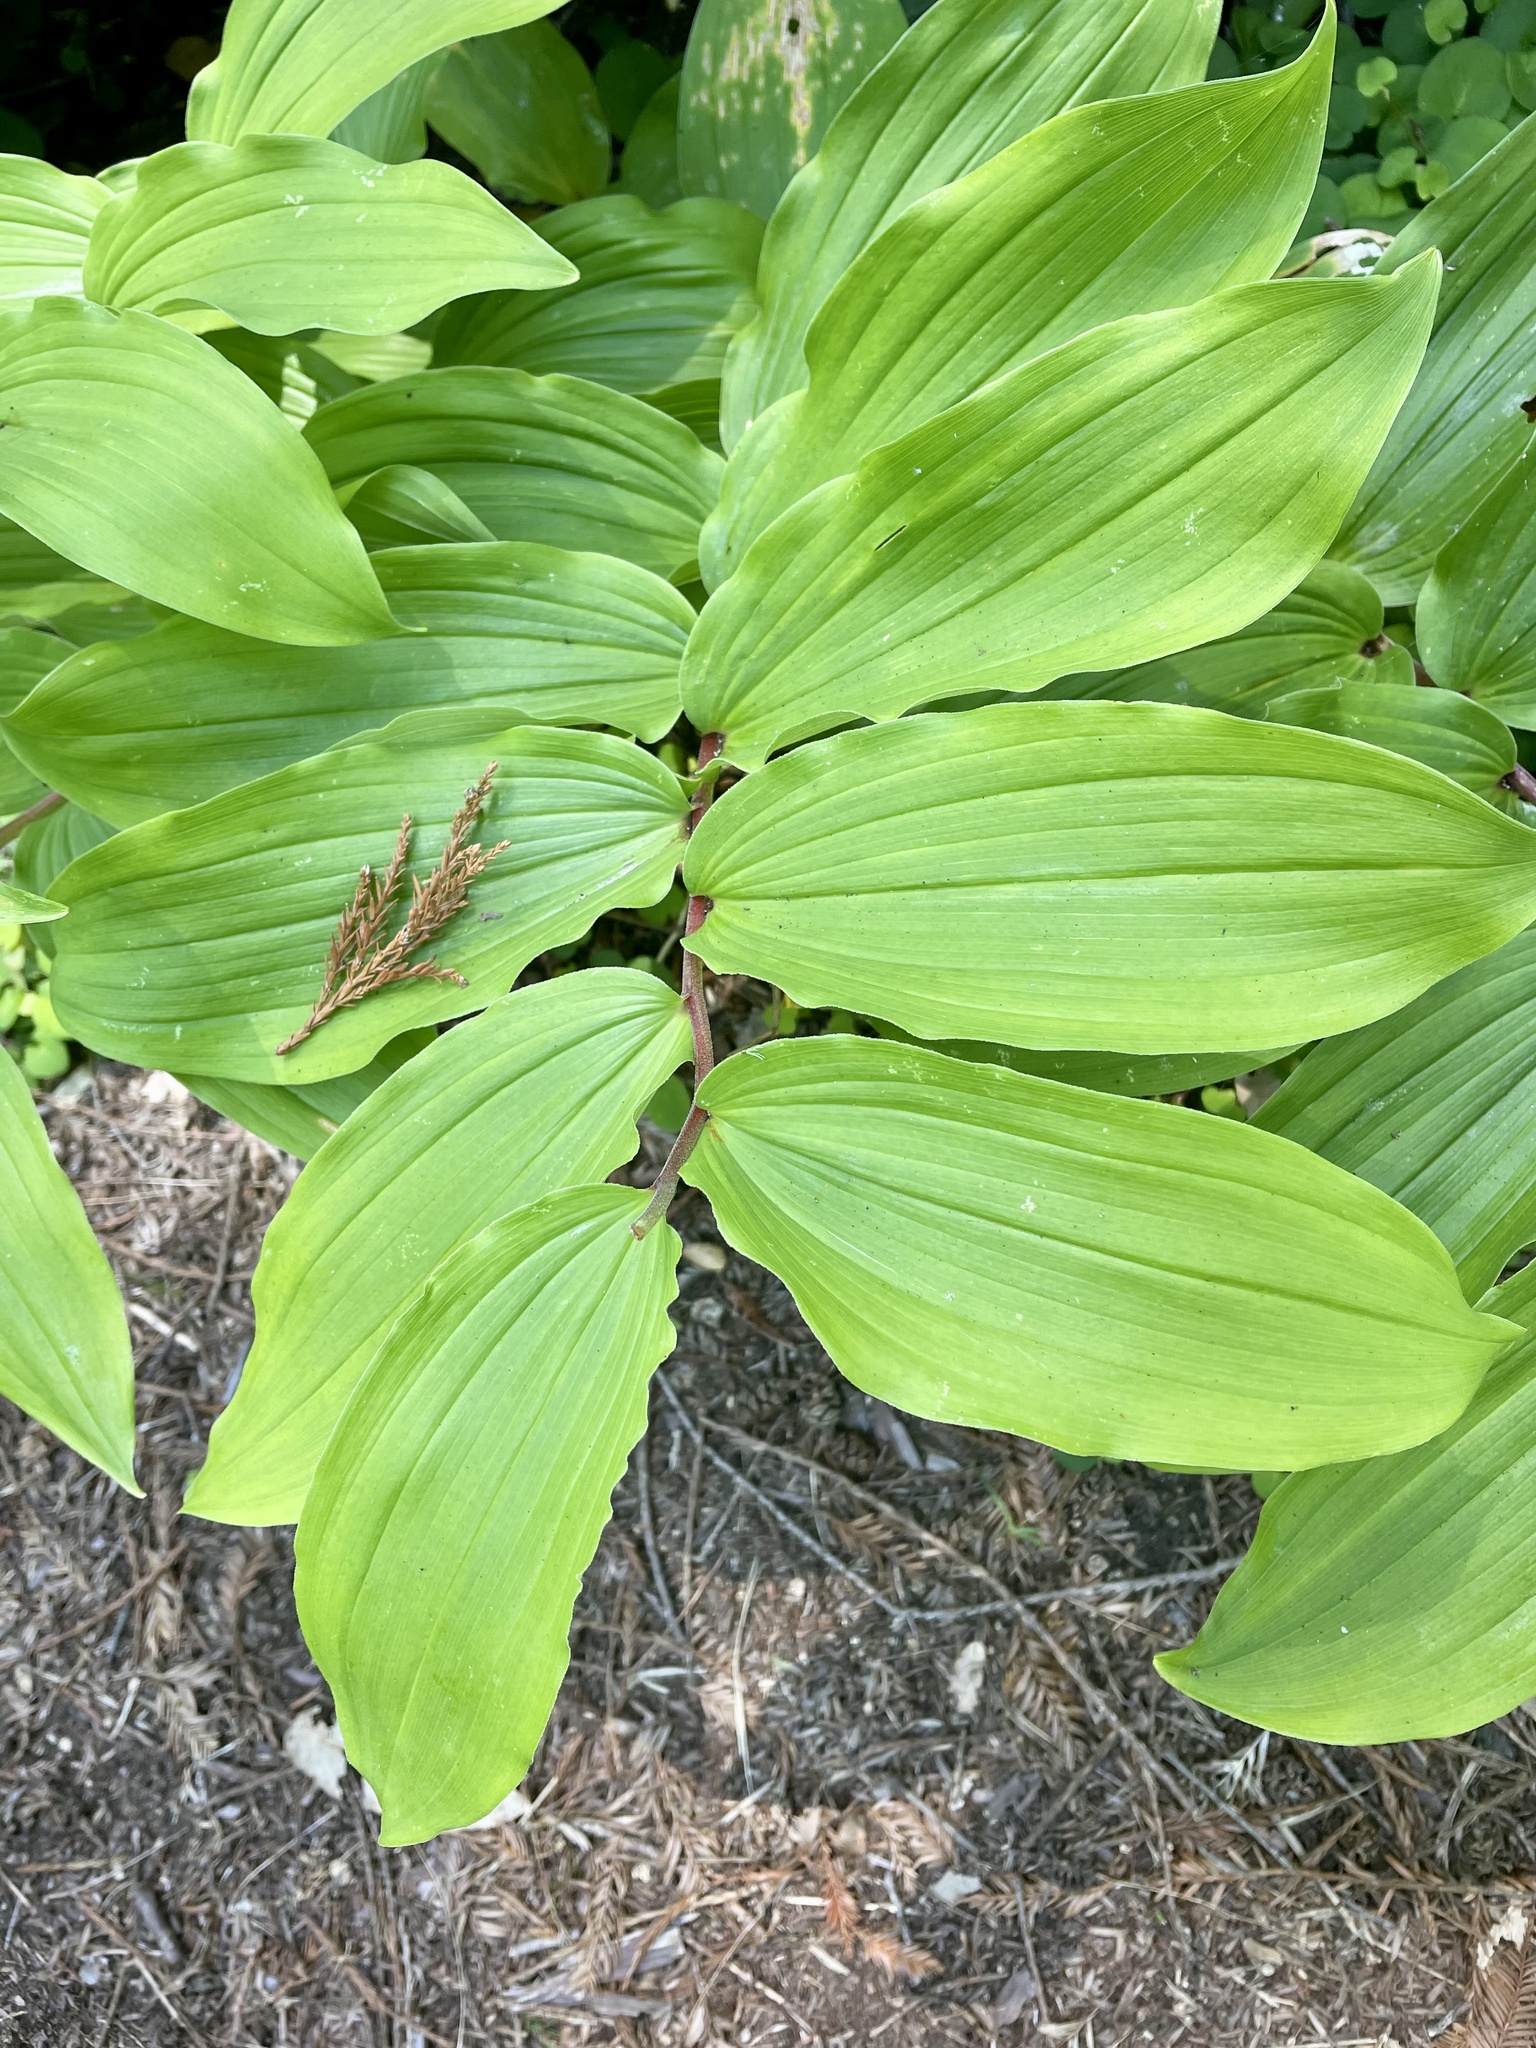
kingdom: Plantae
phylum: Tracheophyta
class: Liliopsida
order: Asparagales
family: Asparagaceae
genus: Maianthemum
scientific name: Maianthemum racemosum
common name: False spikenard
